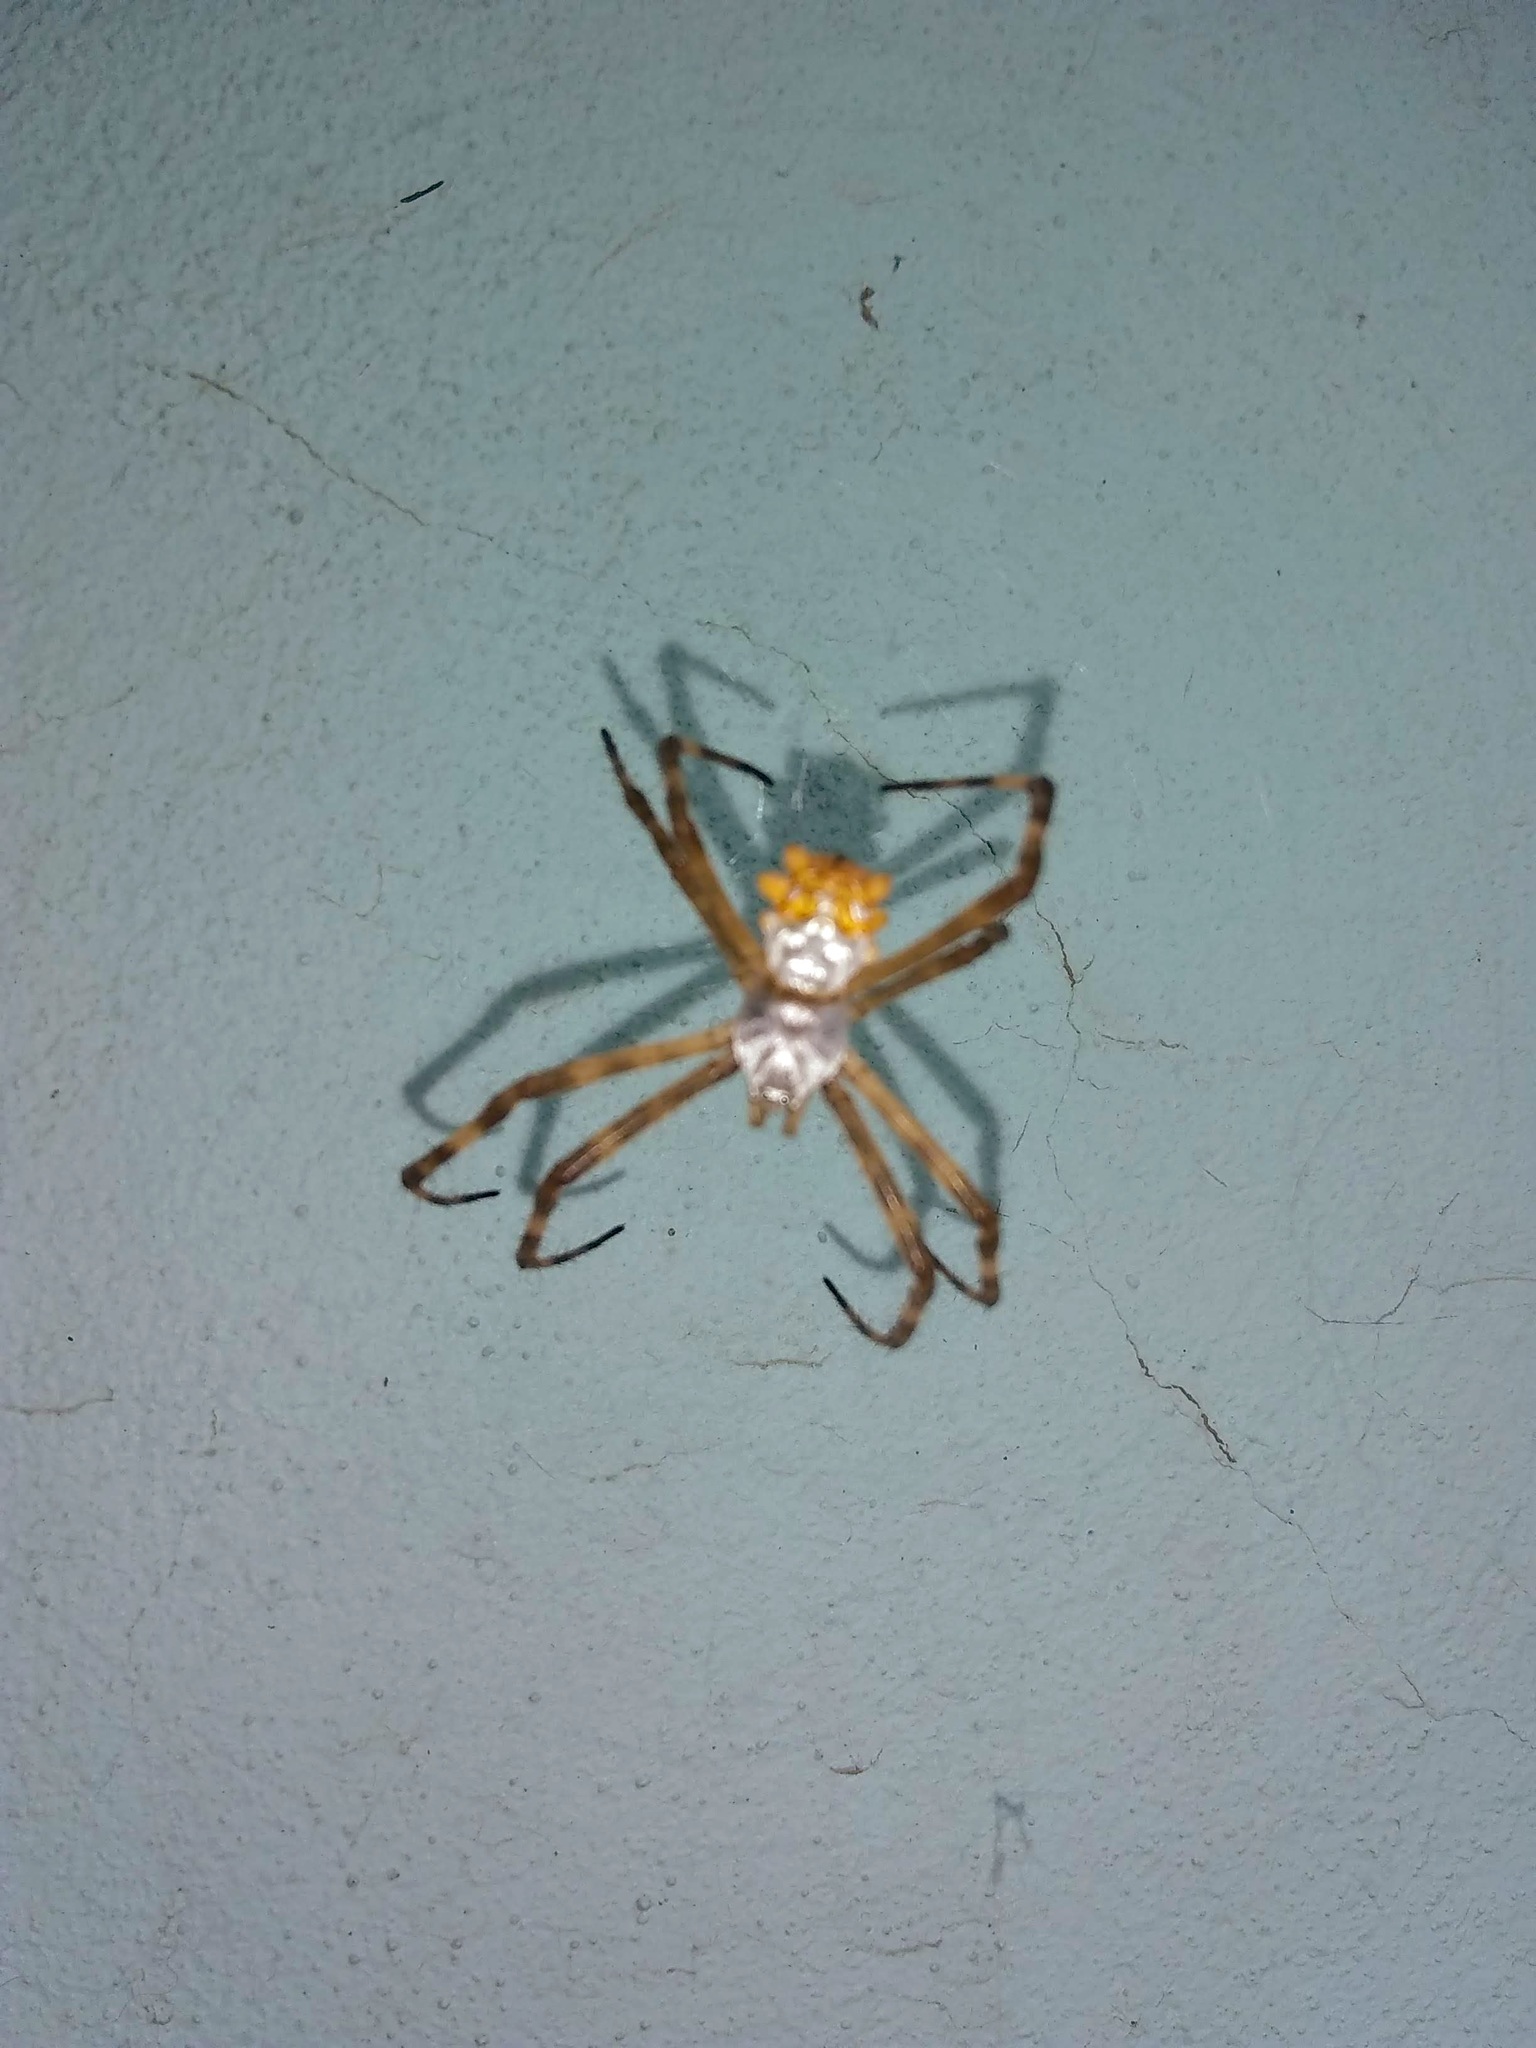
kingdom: Animalia
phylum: Arthropoda
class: Arachnida
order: Araneae
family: Araneidae
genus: Argiope
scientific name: Argiope argentata
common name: Orb weavers
